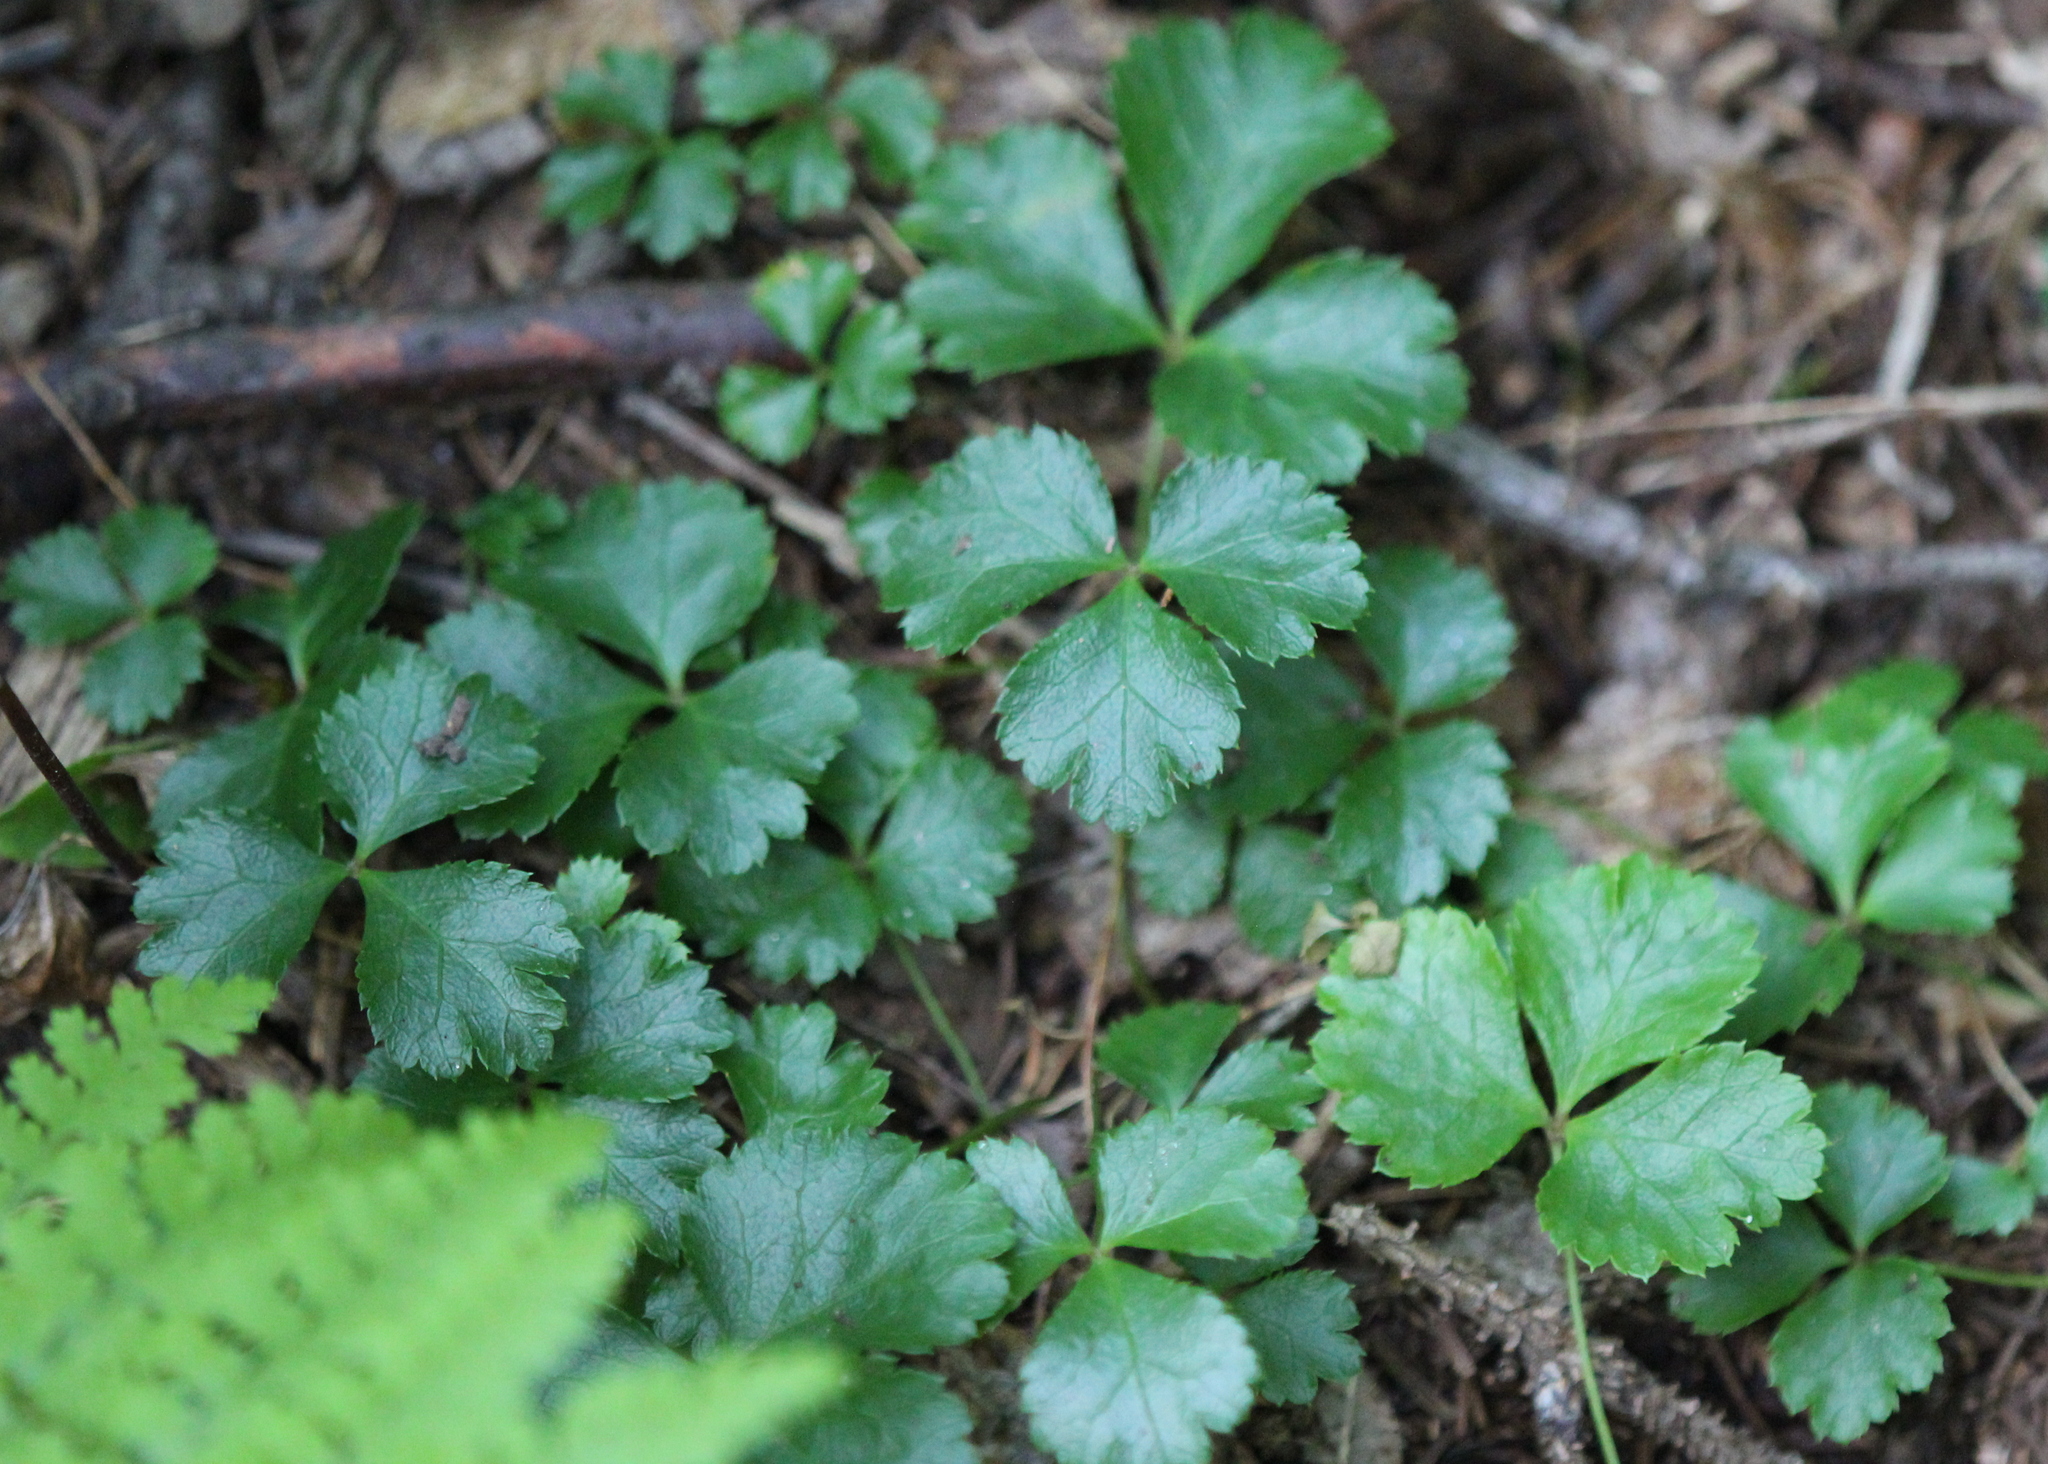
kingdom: Plantae
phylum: Tracheophyta
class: Magnoliopsida
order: Ranunculales
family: Ranunculaceae
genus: Coptis
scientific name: Coptis trifolia
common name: Canker-root
